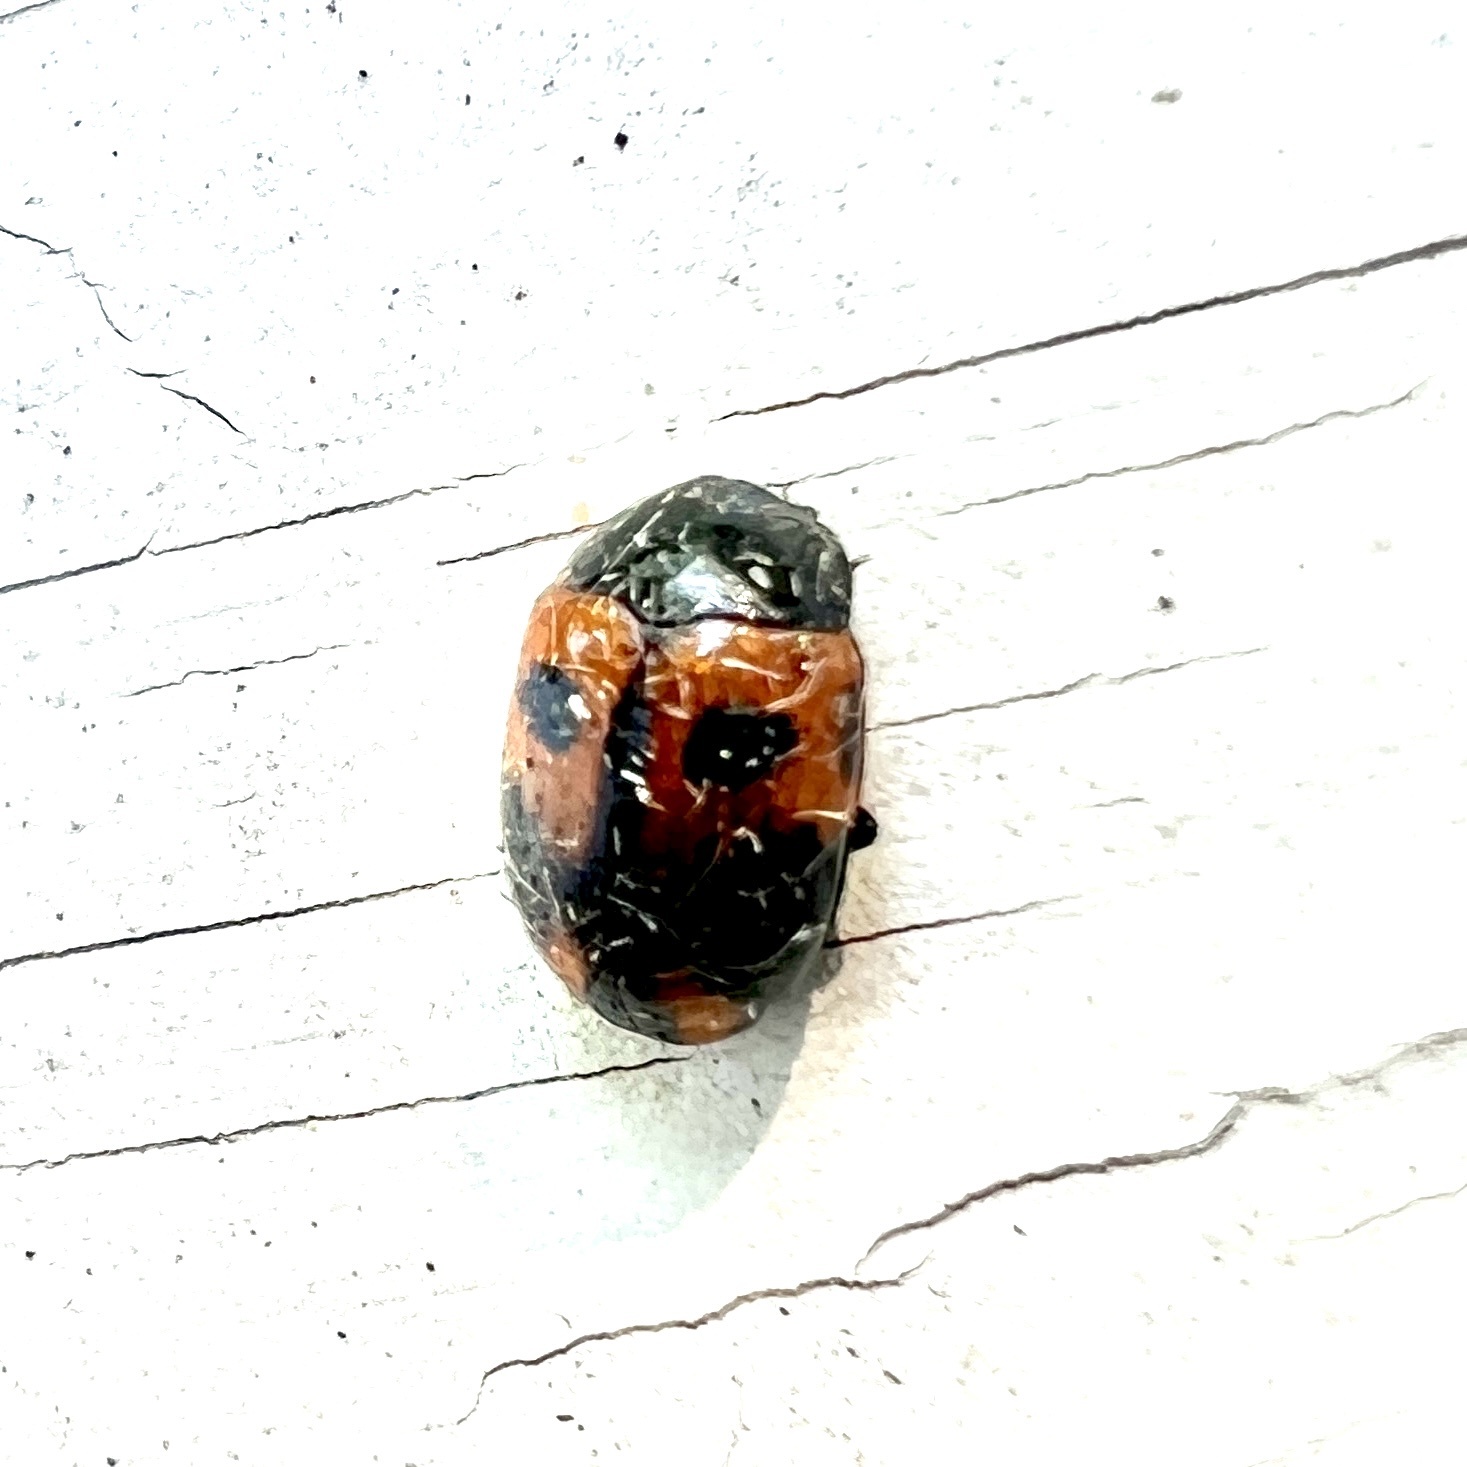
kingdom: Animalia
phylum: Arthropoda
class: Insecta
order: Coleoptera
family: Tenebrionidae
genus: Diaperis
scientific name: Diaperis maculata
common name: Darkling beetle
